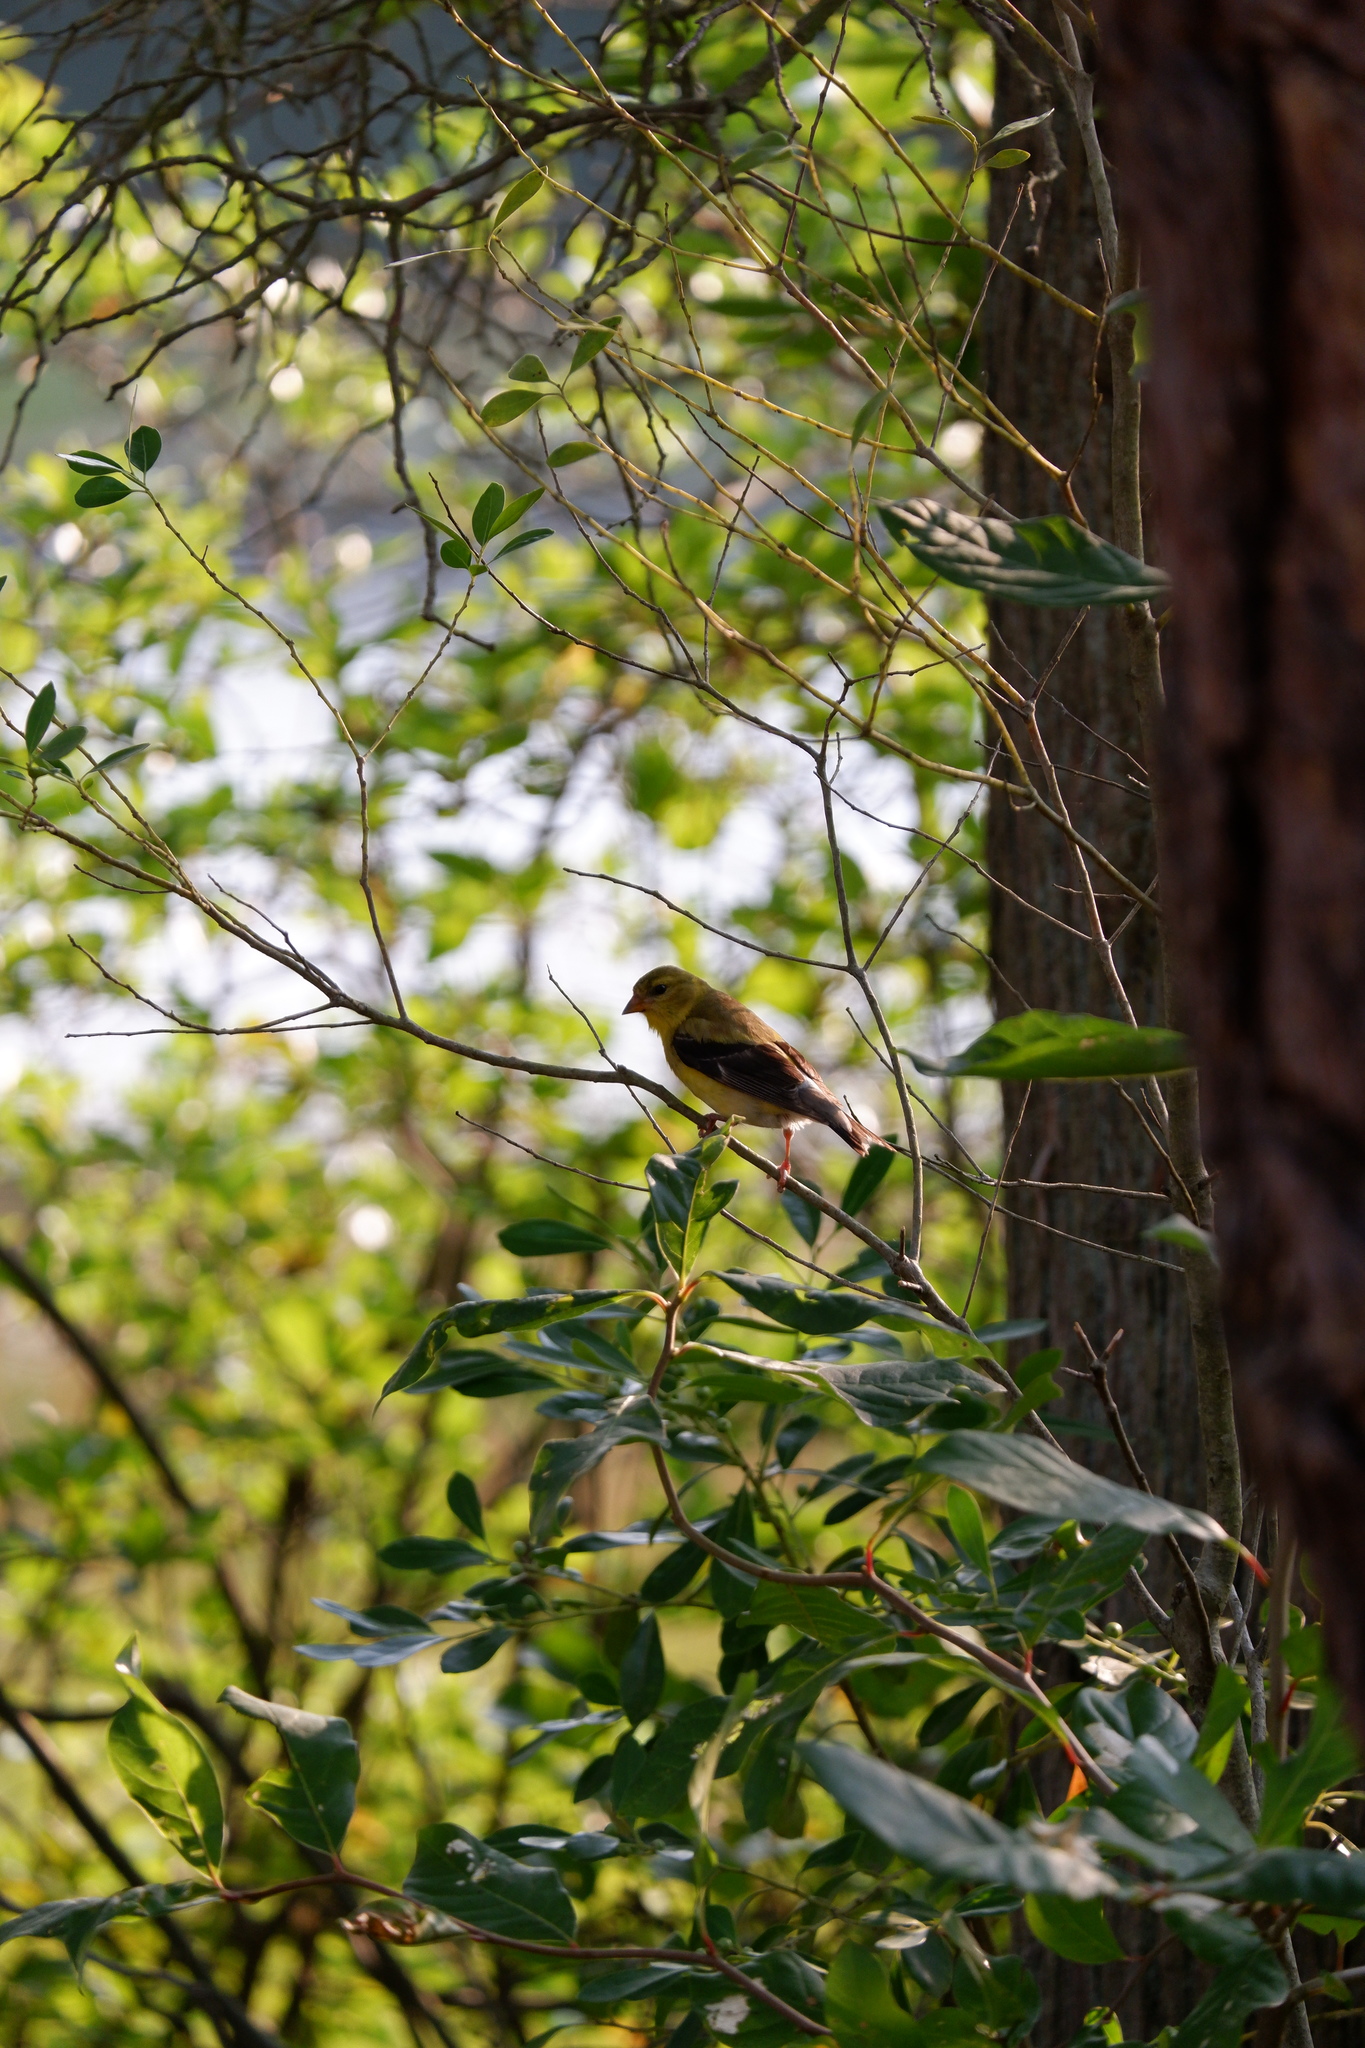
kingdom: Animalia
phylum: Chordata
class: Aves
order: Passeriformes
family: Fringillidae
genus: Spinus
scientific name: Spinus tristis
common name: American goldfinch
